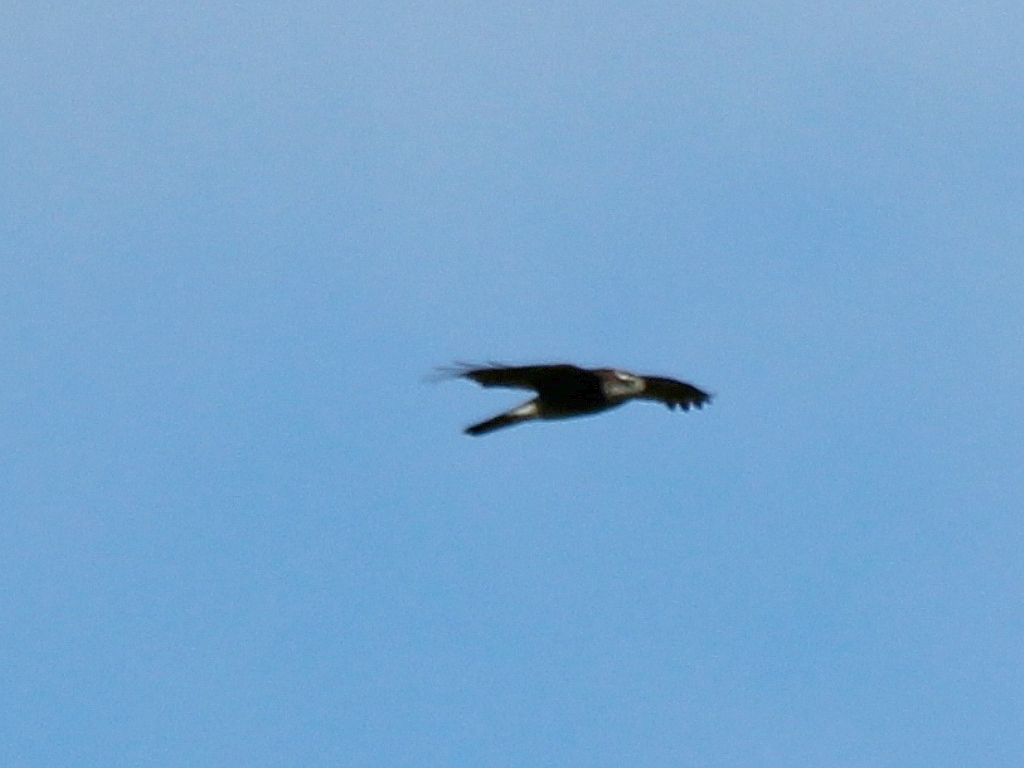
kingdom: Animalia
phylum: Chordata
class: Aves
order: Accipitriformes
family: Accipitridae
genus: Accipiter
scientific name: Accipiter nisus
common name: Eurasian sparrowhawk
